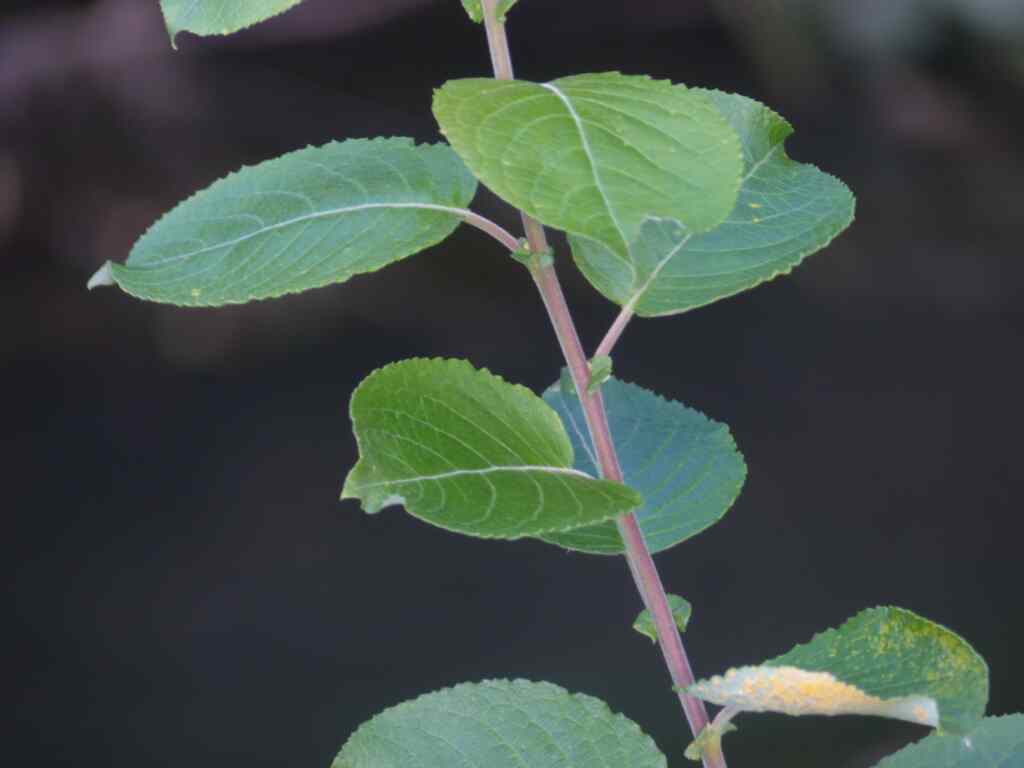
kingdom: Plantae
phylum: Tracheophyta
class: Magnoliopsida
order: Malpighiales
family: Salicaceae
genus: Salix
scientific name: Salix caprea
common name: Goat willow
